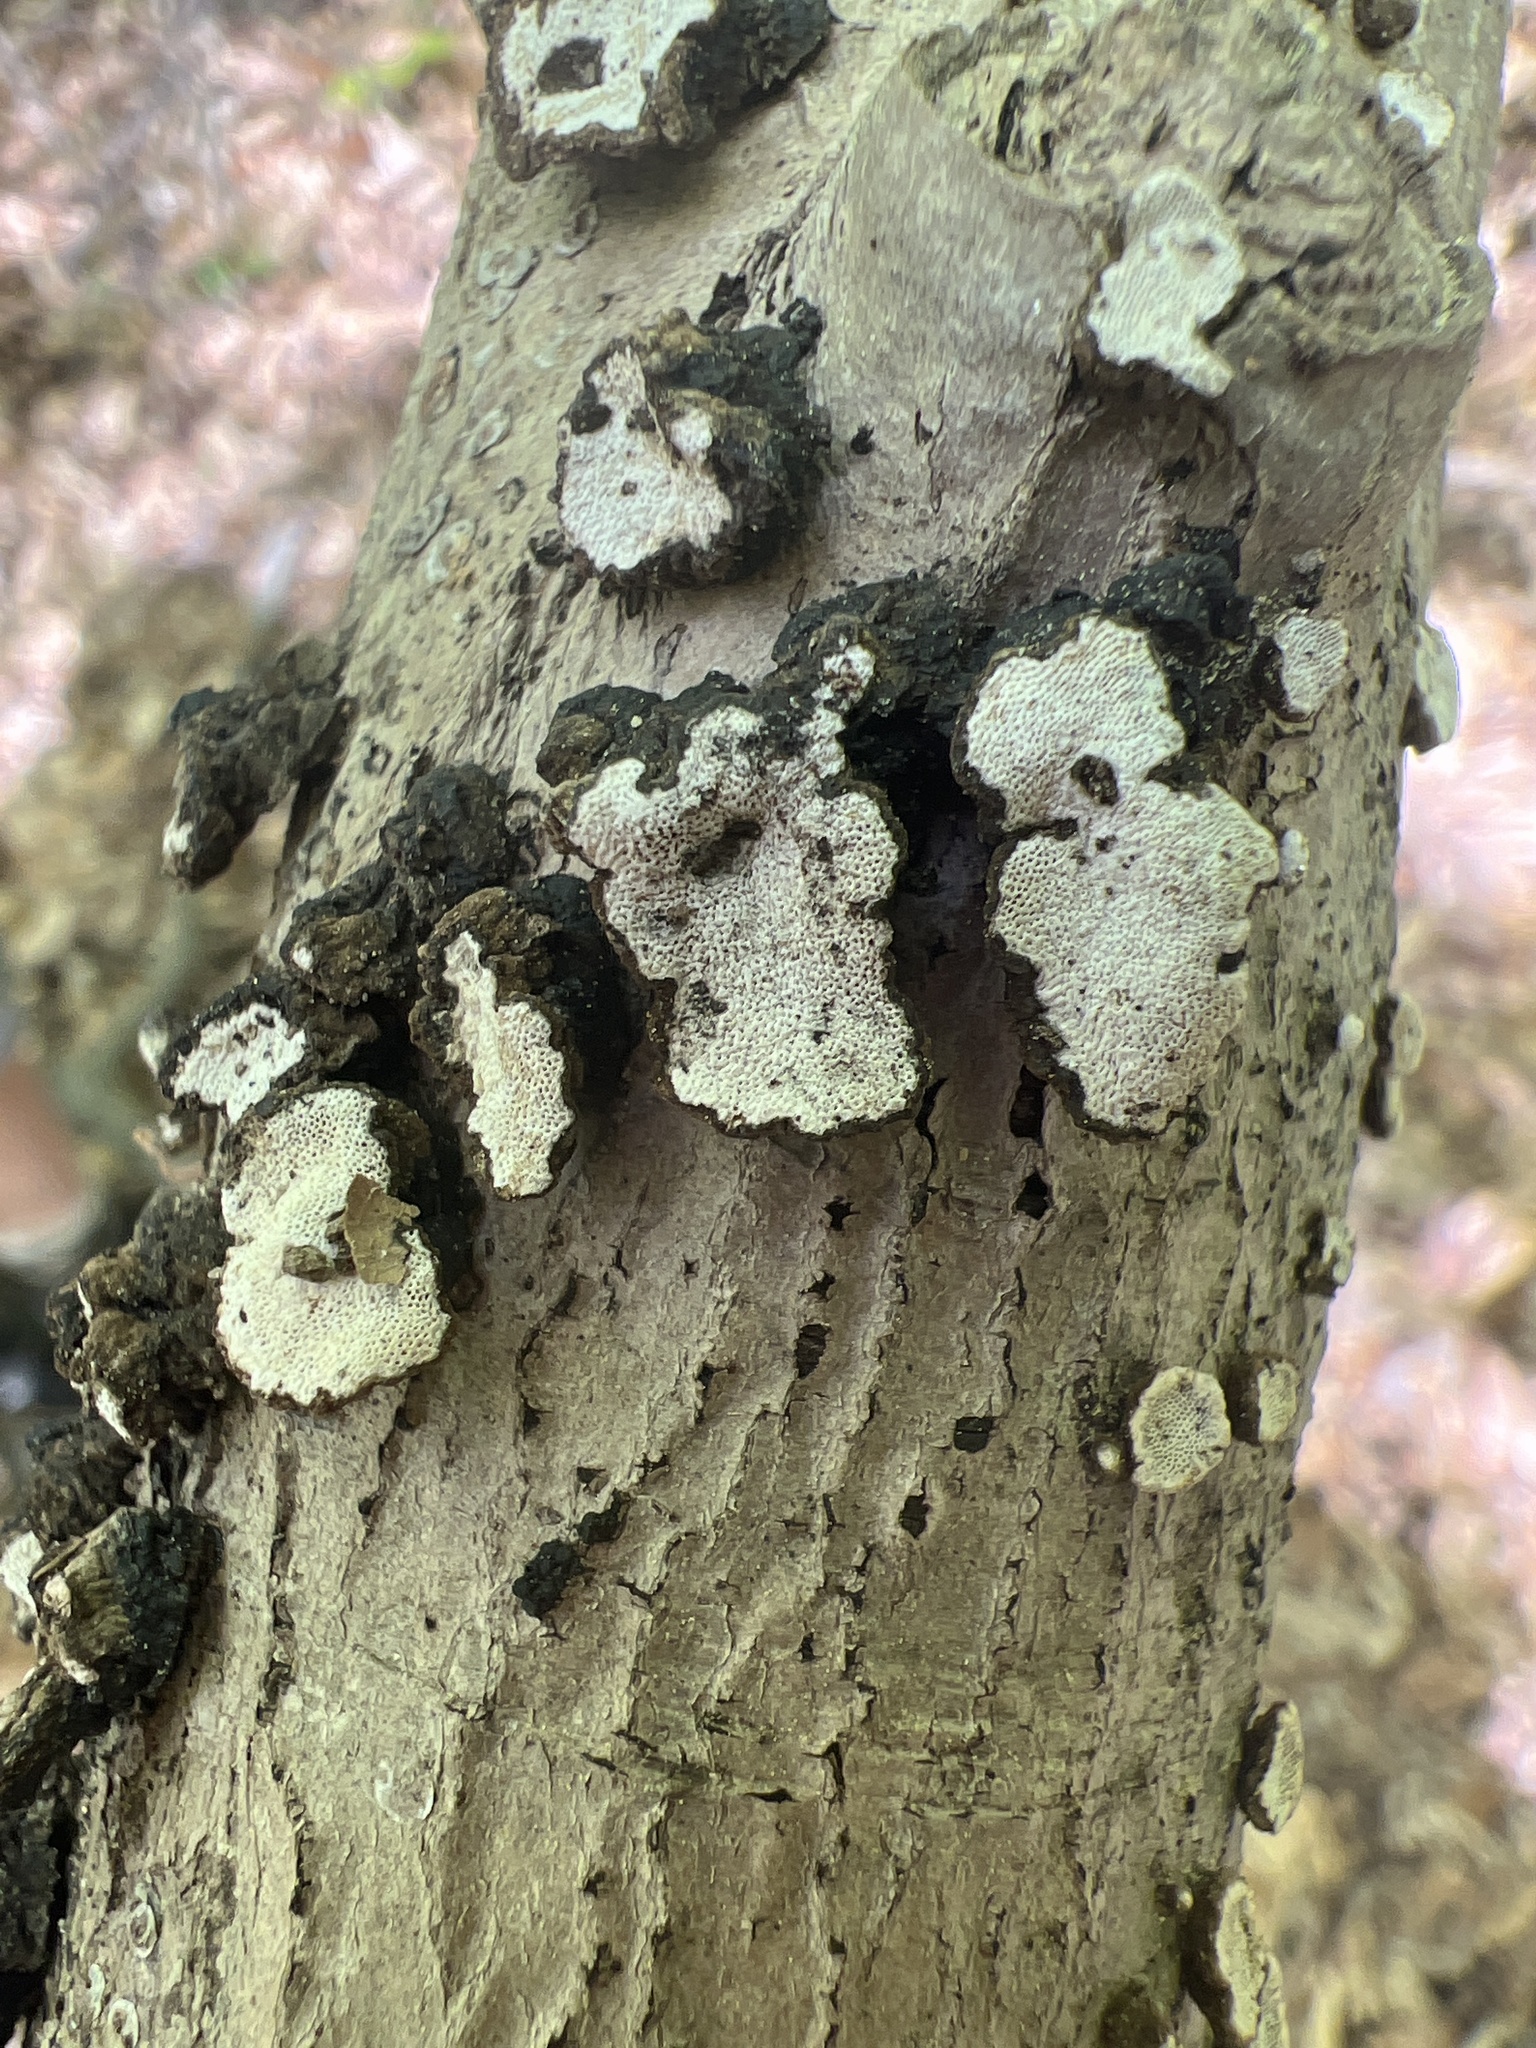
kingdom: Fungi
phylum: Basidiomycota
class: Agaricomycetes
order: Polyporales
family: Polyporaceae
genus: Cerioporus
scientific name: Cerioporus scutellatus
